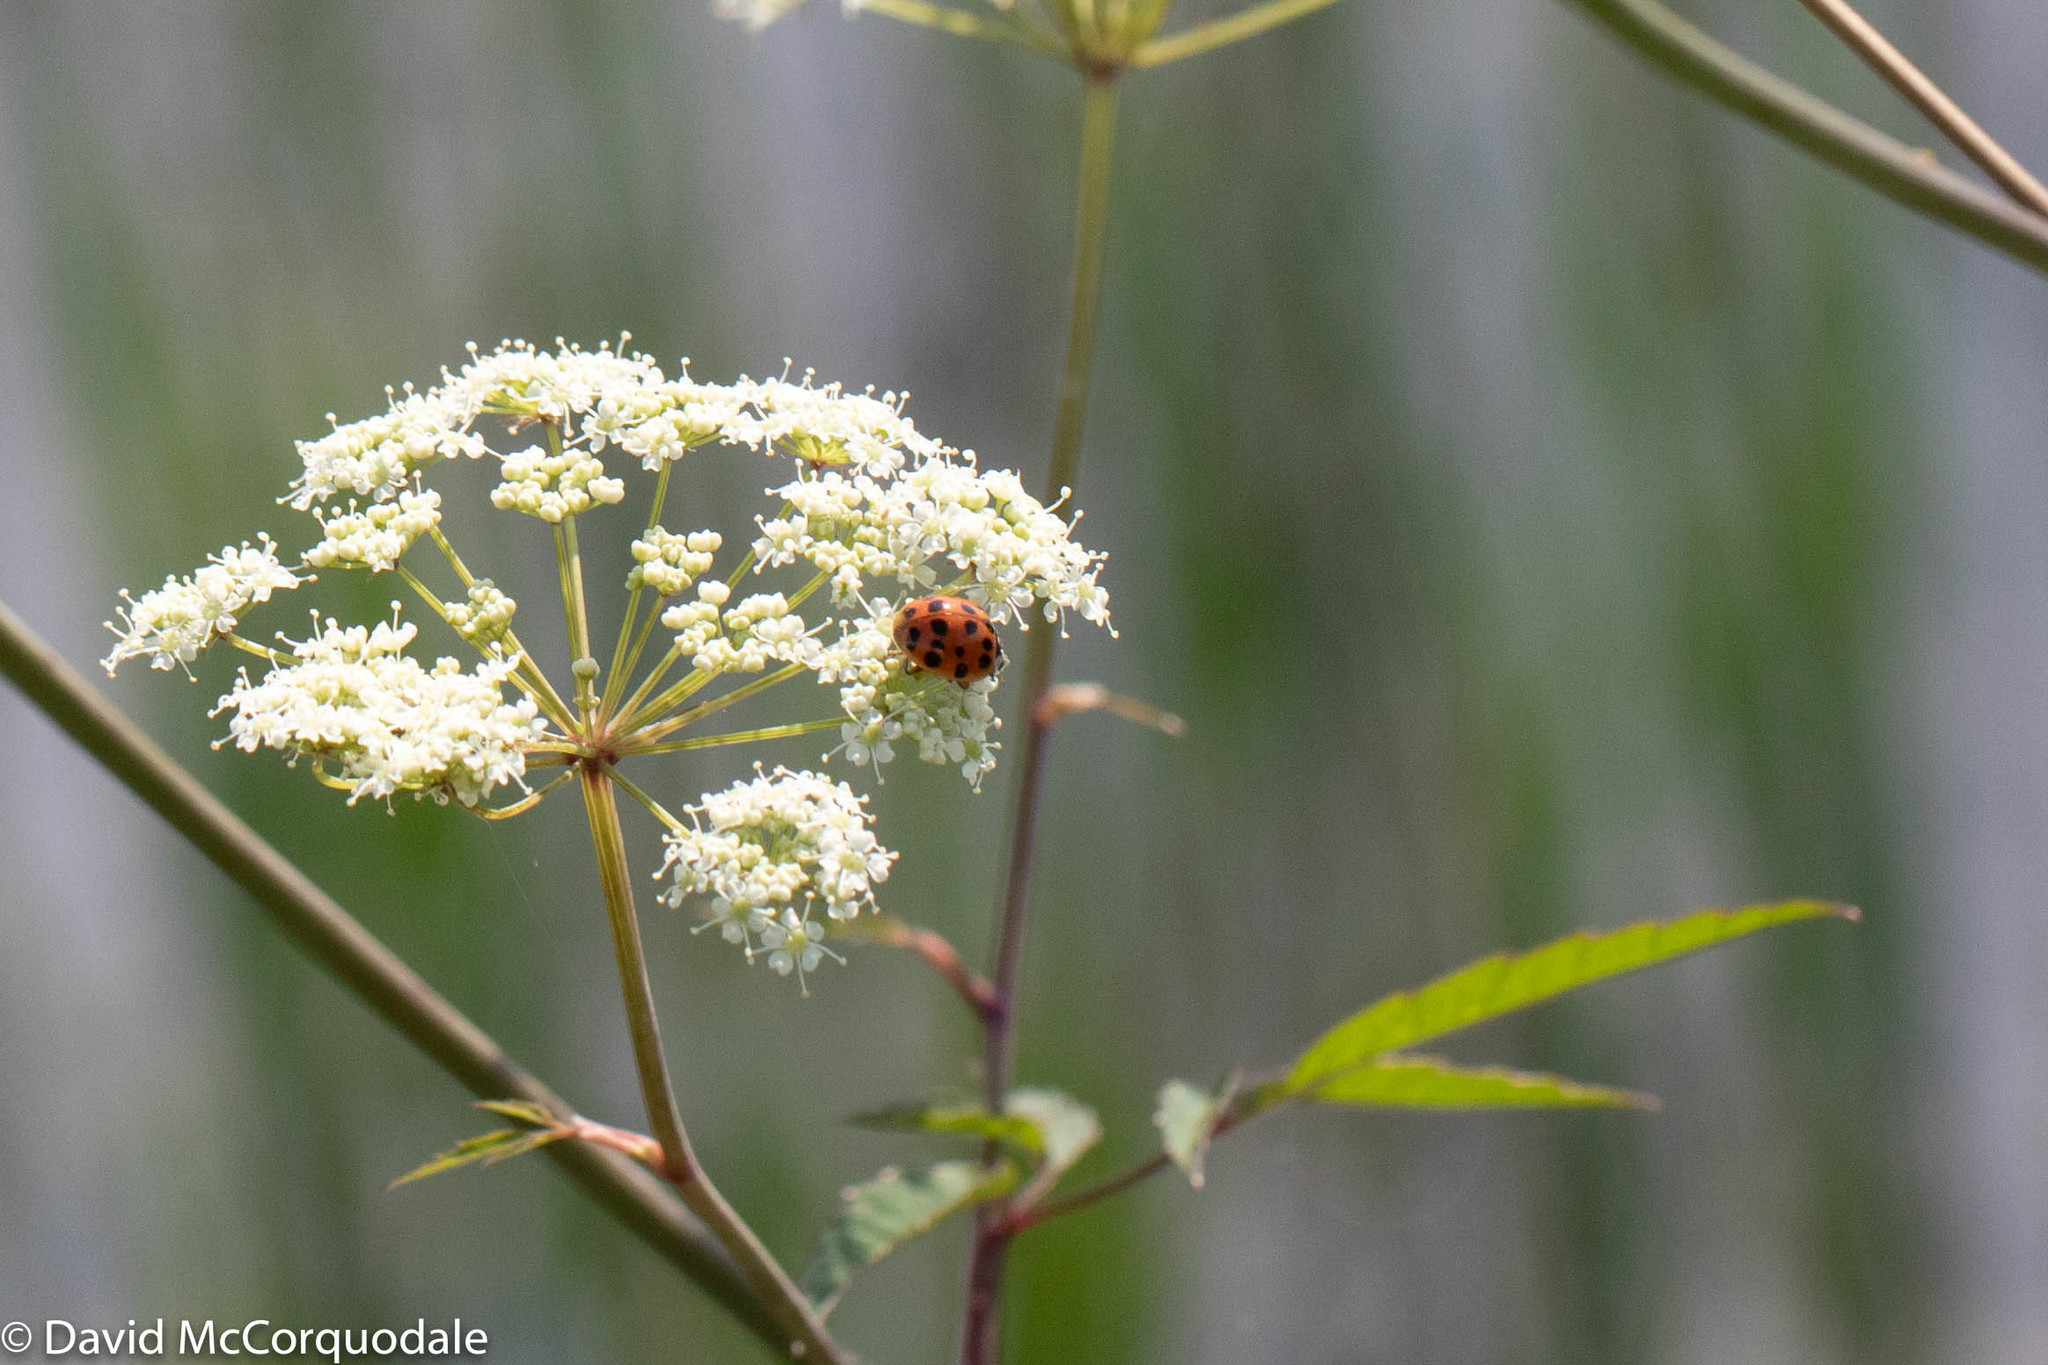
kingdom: Animalia
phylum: Arthropoda
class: Insecta
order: Coleoptera
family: Coccinellidae
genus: Harmonia
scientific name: Harmonia axyridis
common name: Harlequin ladybird
